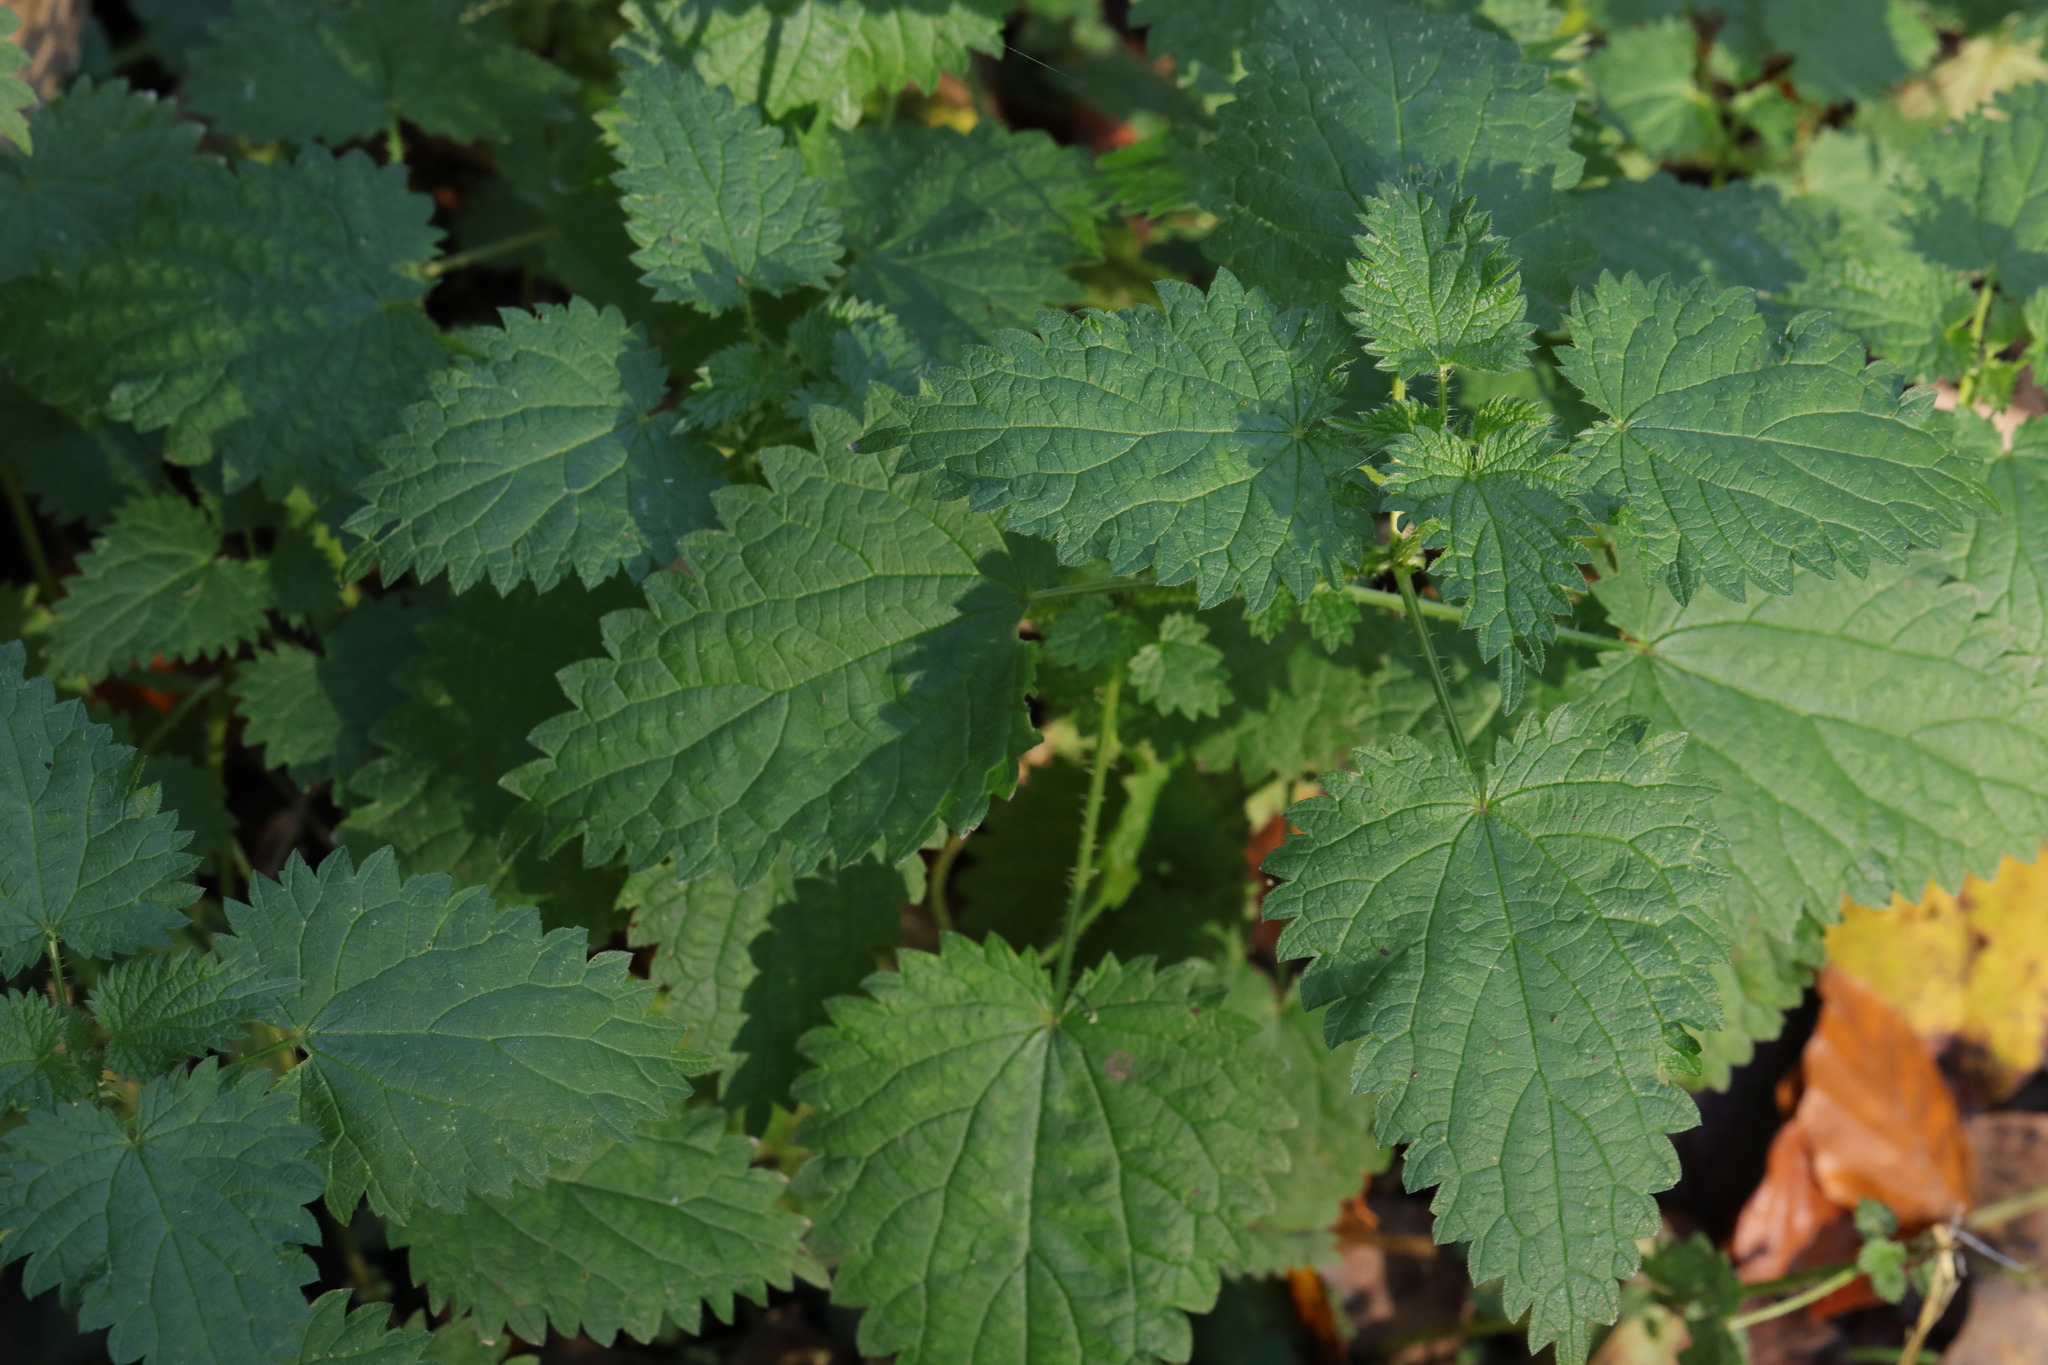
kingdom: Plantae
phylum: Tracheophyta
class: Magnoliopsida
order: Rosales
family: Urticaceae
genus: Urtica
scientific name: Urtica dioica
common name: Common nettle
